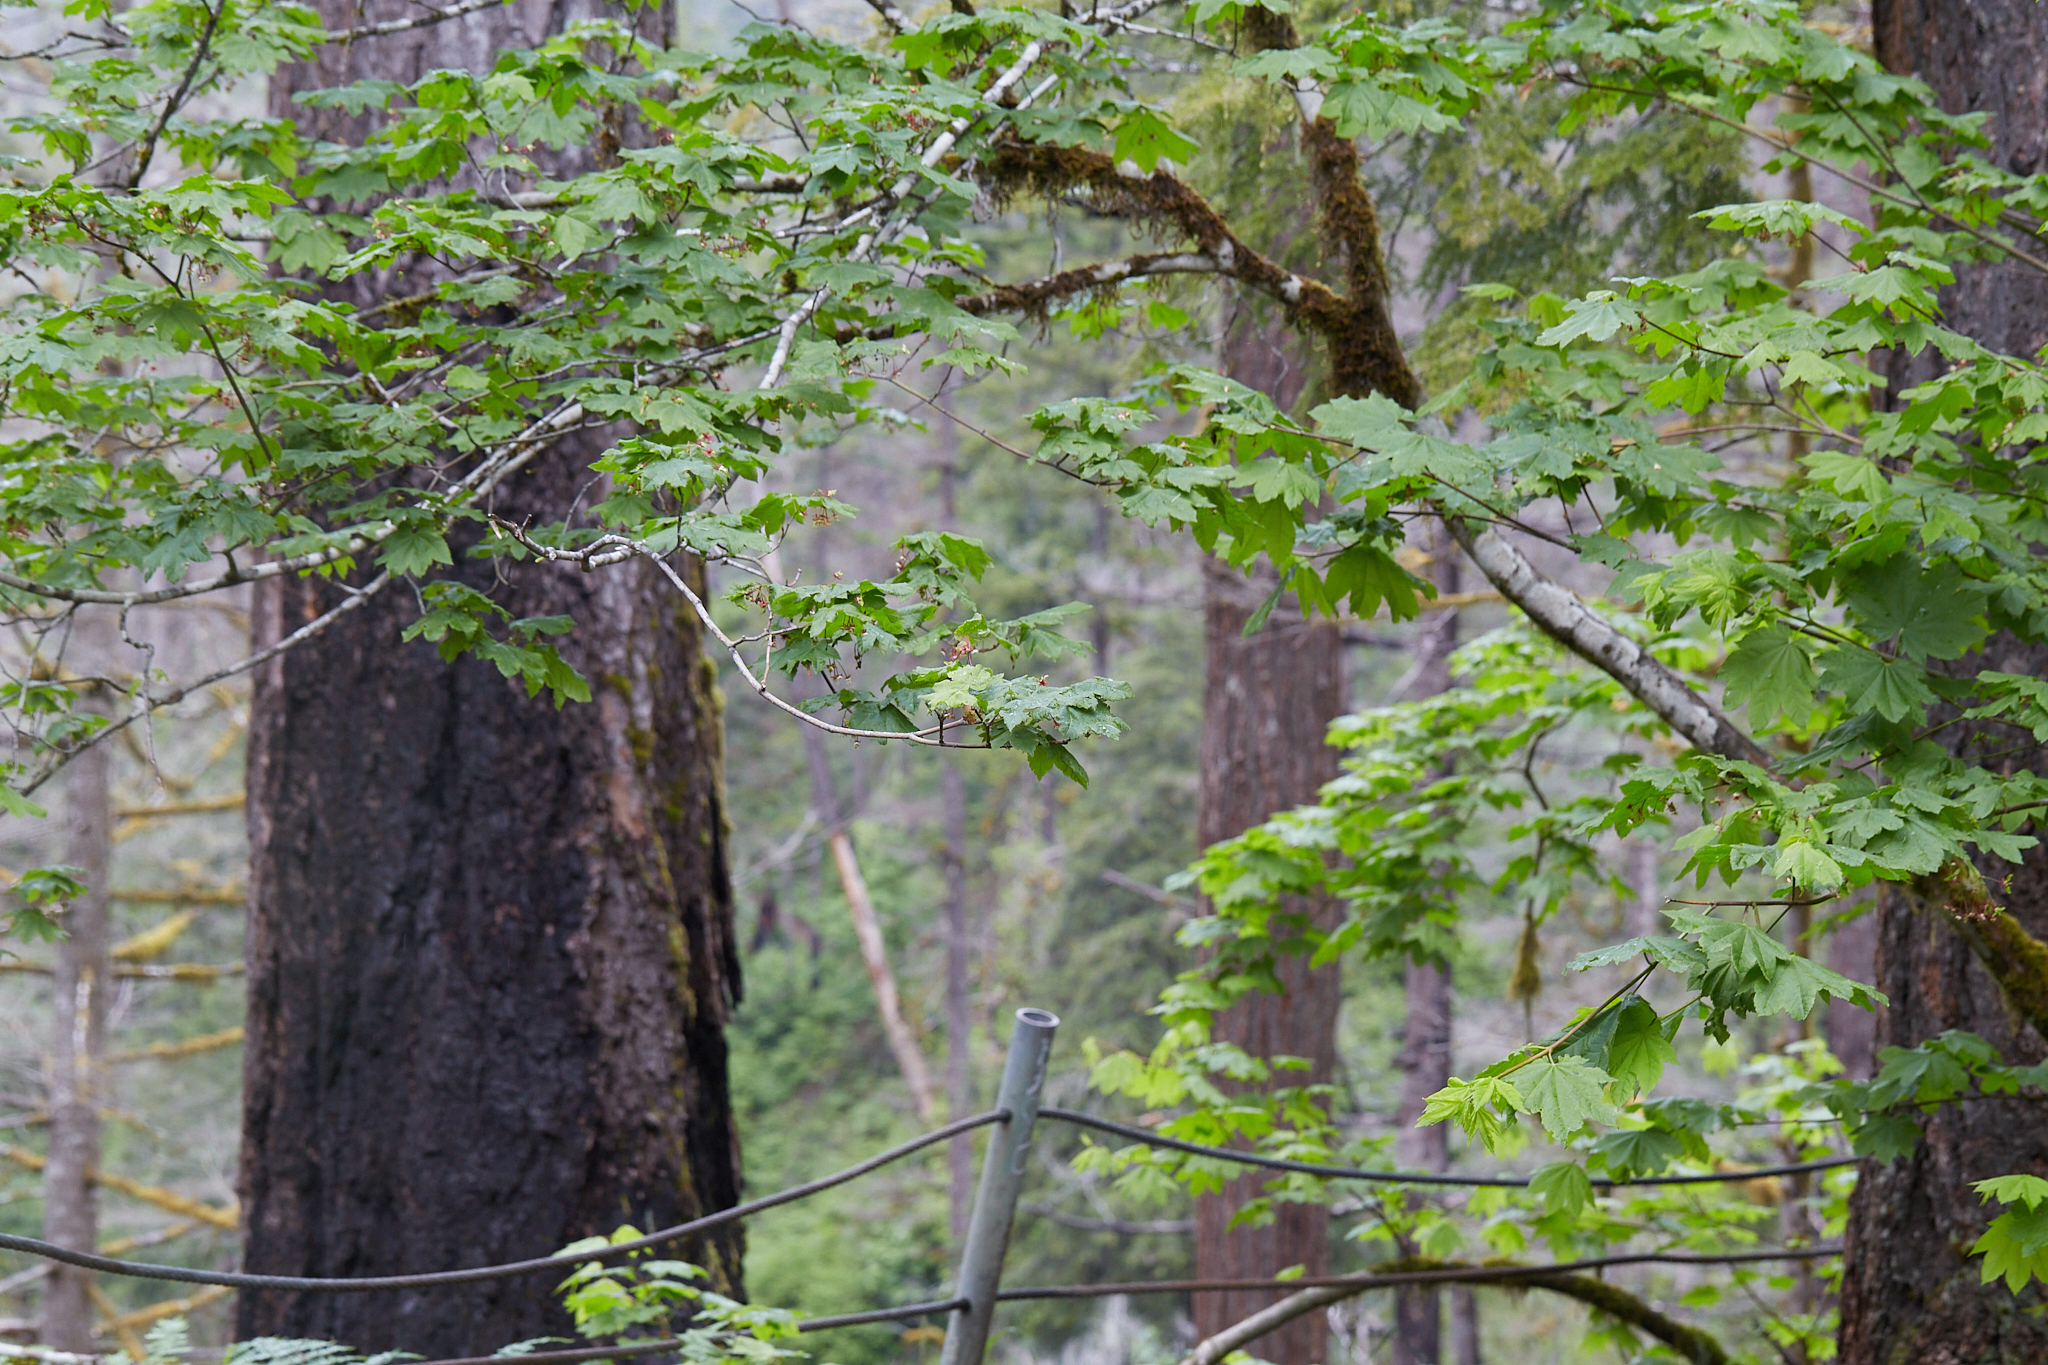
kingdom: Plantae
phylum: Tracheophyta
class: Magnoliopsida
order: Sapindales
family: Sapindaceae
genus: Acer
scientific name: Acer circinatum
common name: Vine maple
